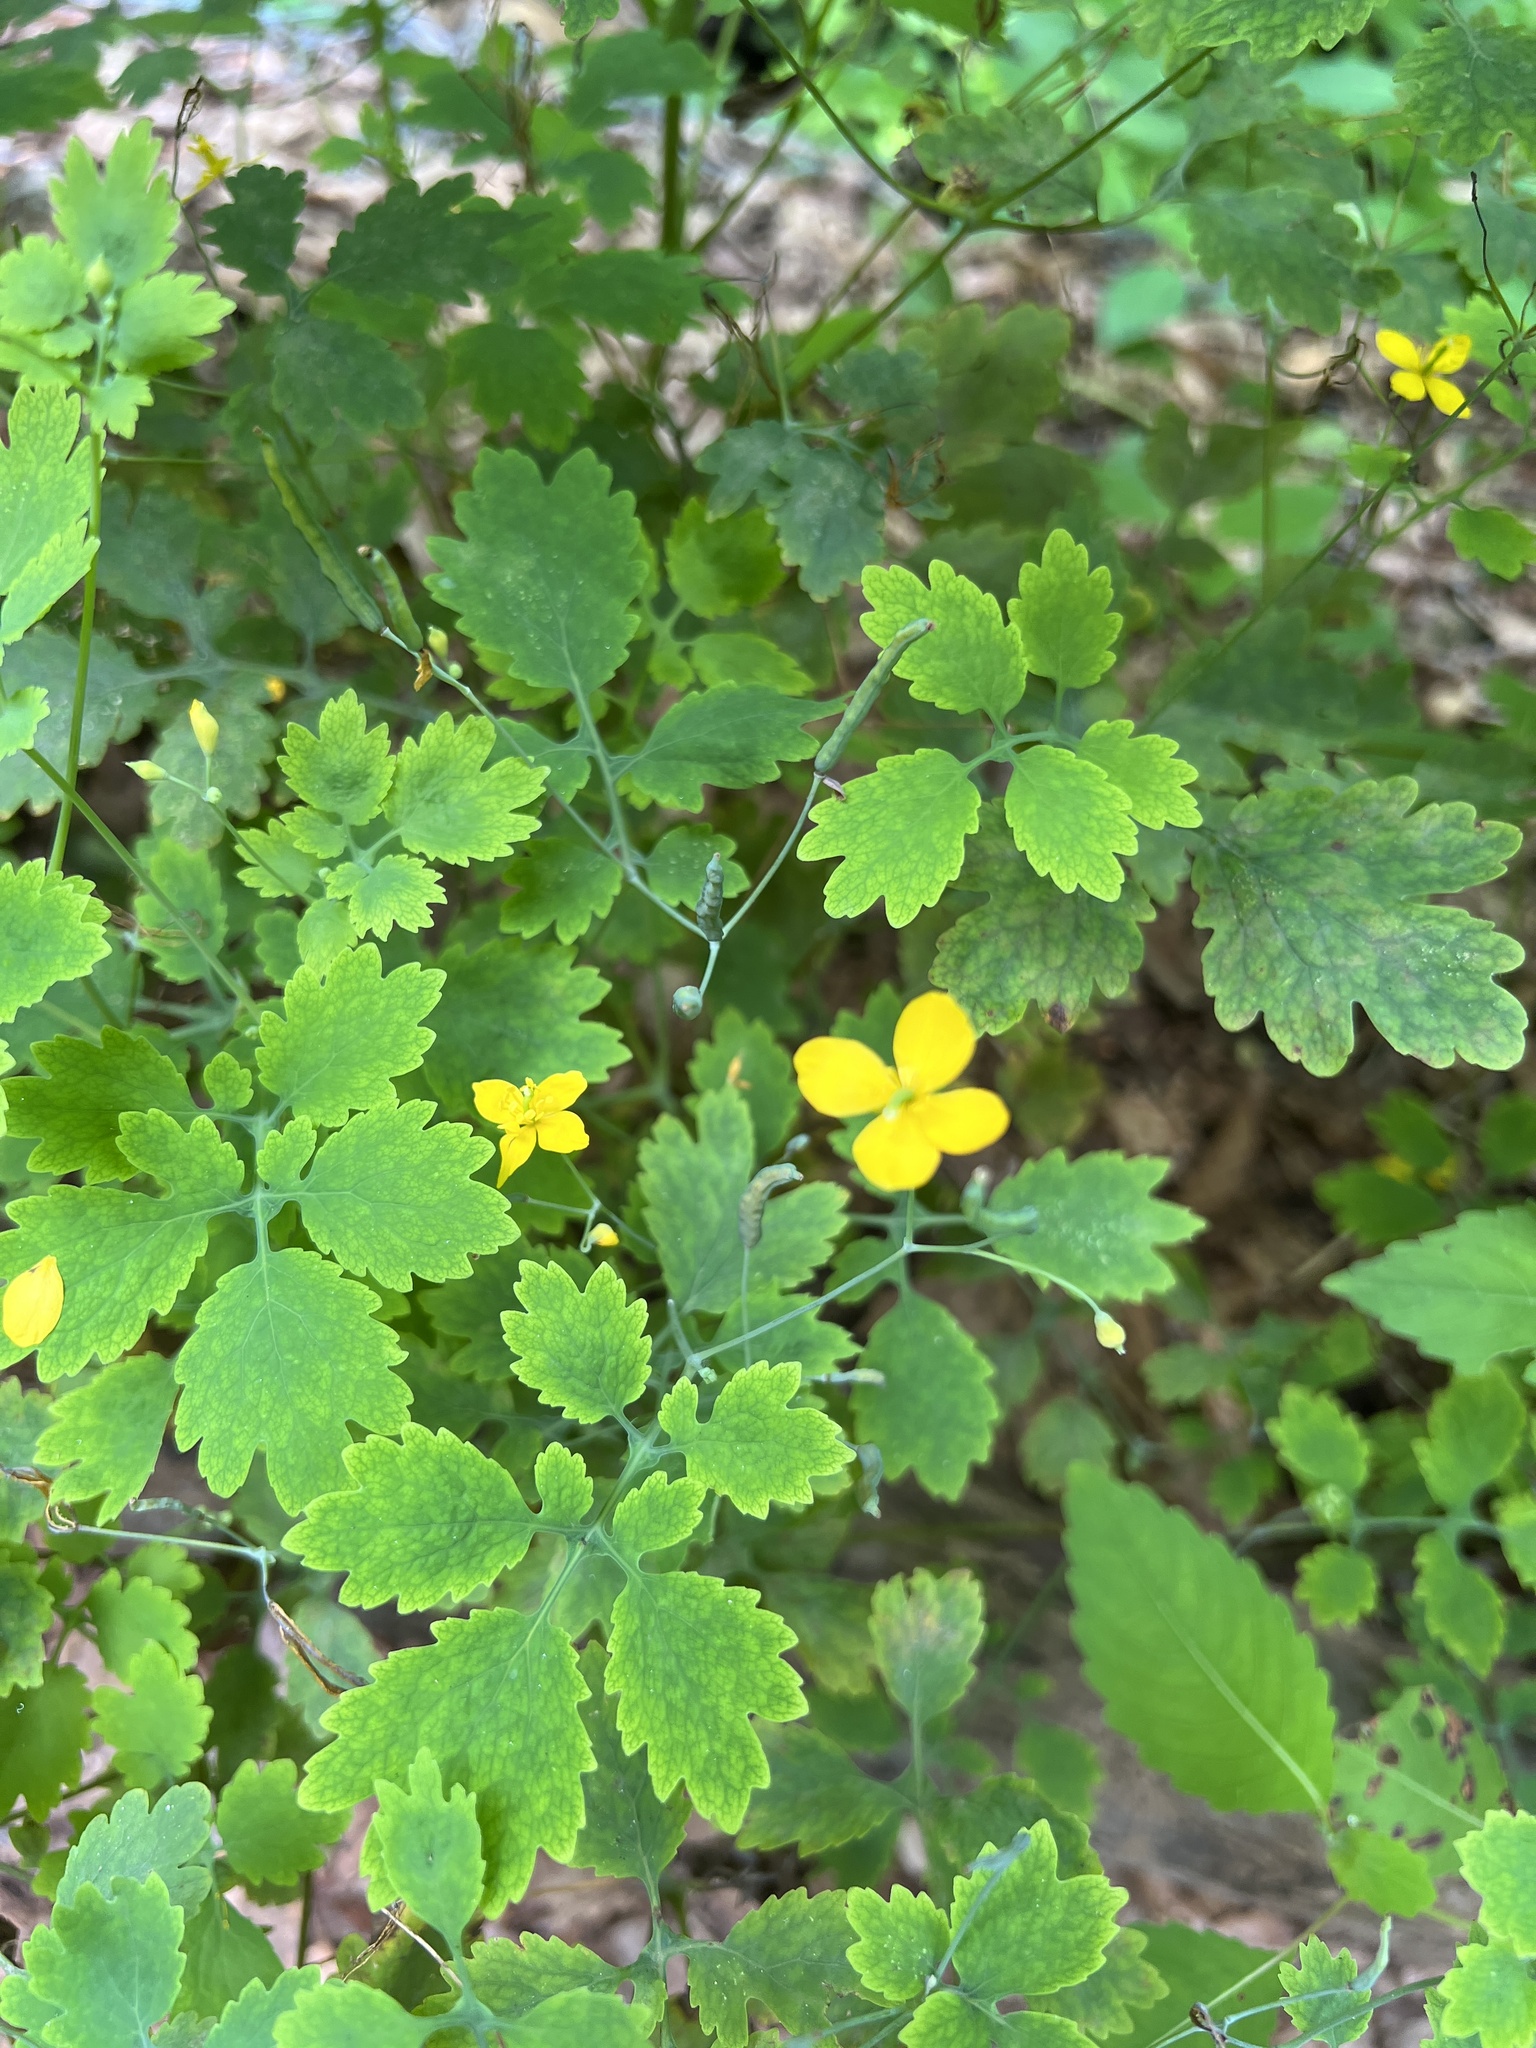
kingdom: Plantae
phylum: Tracheophyta
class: Magnoliopsida
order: Ranunculales
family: Papaveraceae
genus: Chelidonium
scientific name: Chelidonium majus
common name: Greater celandine
